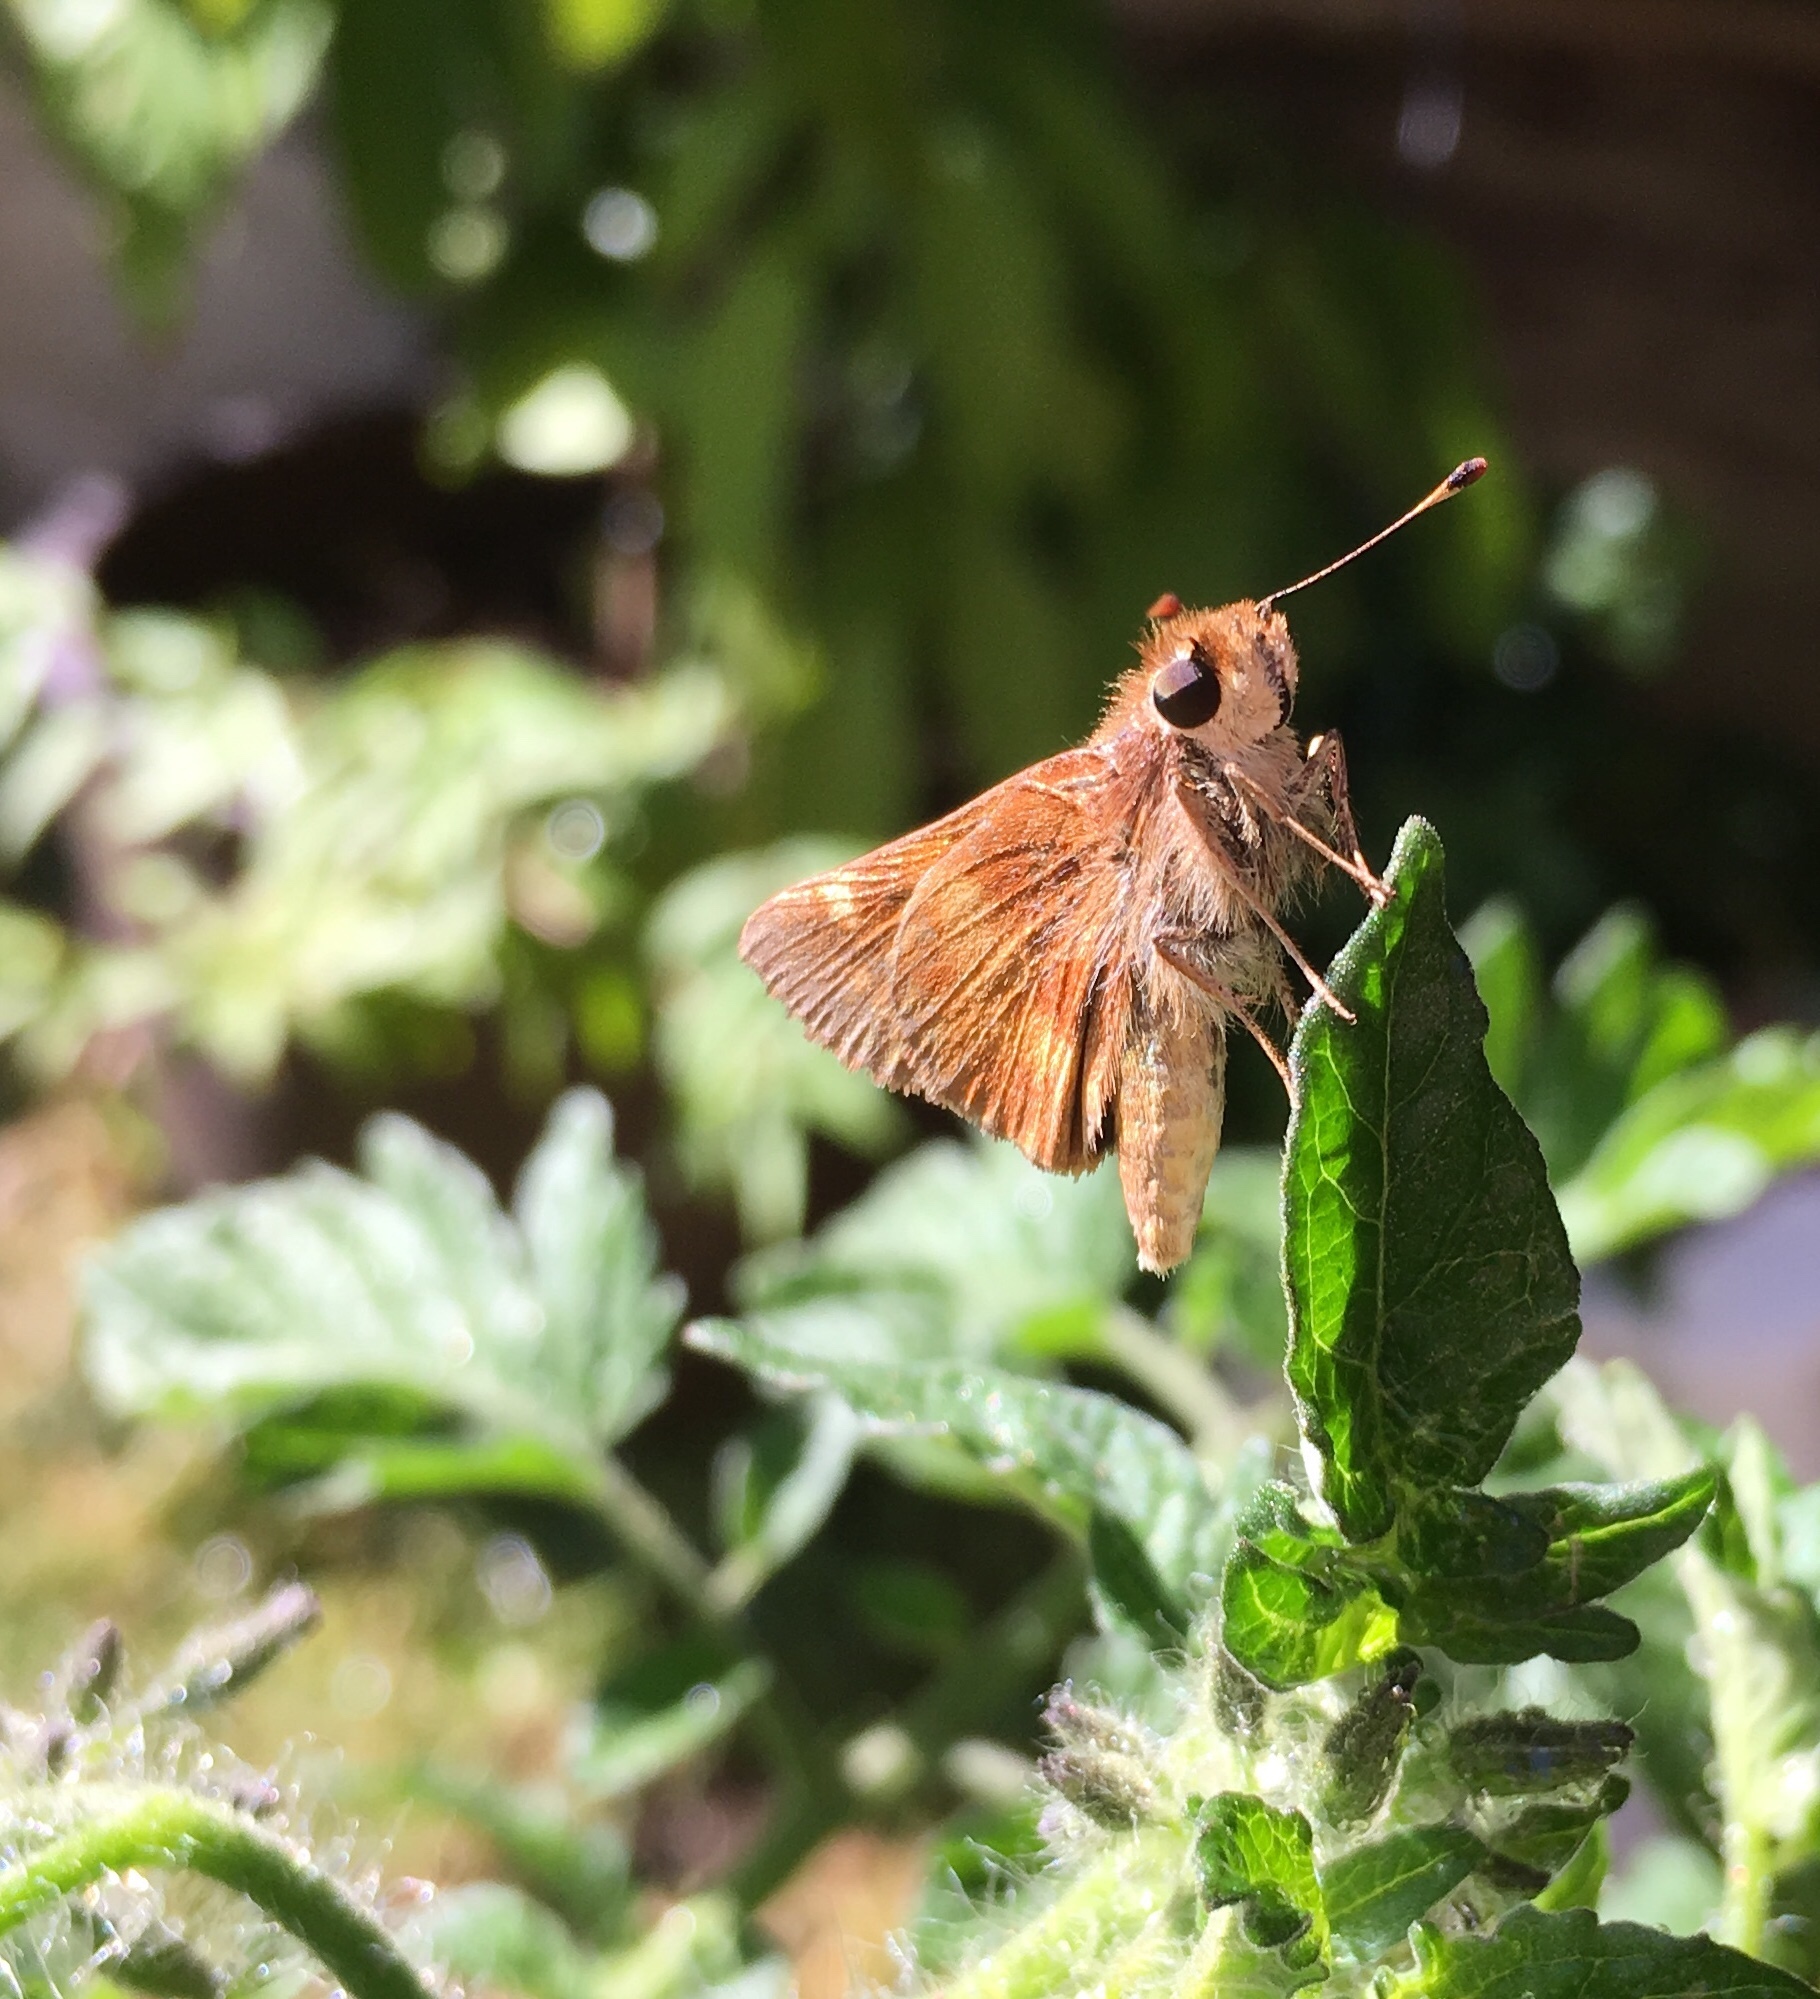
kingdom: Animalia
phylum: Arthropoda
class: Insecta
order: Lepidoptera
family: Hesperiidae
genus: Lon
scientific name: Lon melane
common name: Umber skipper
